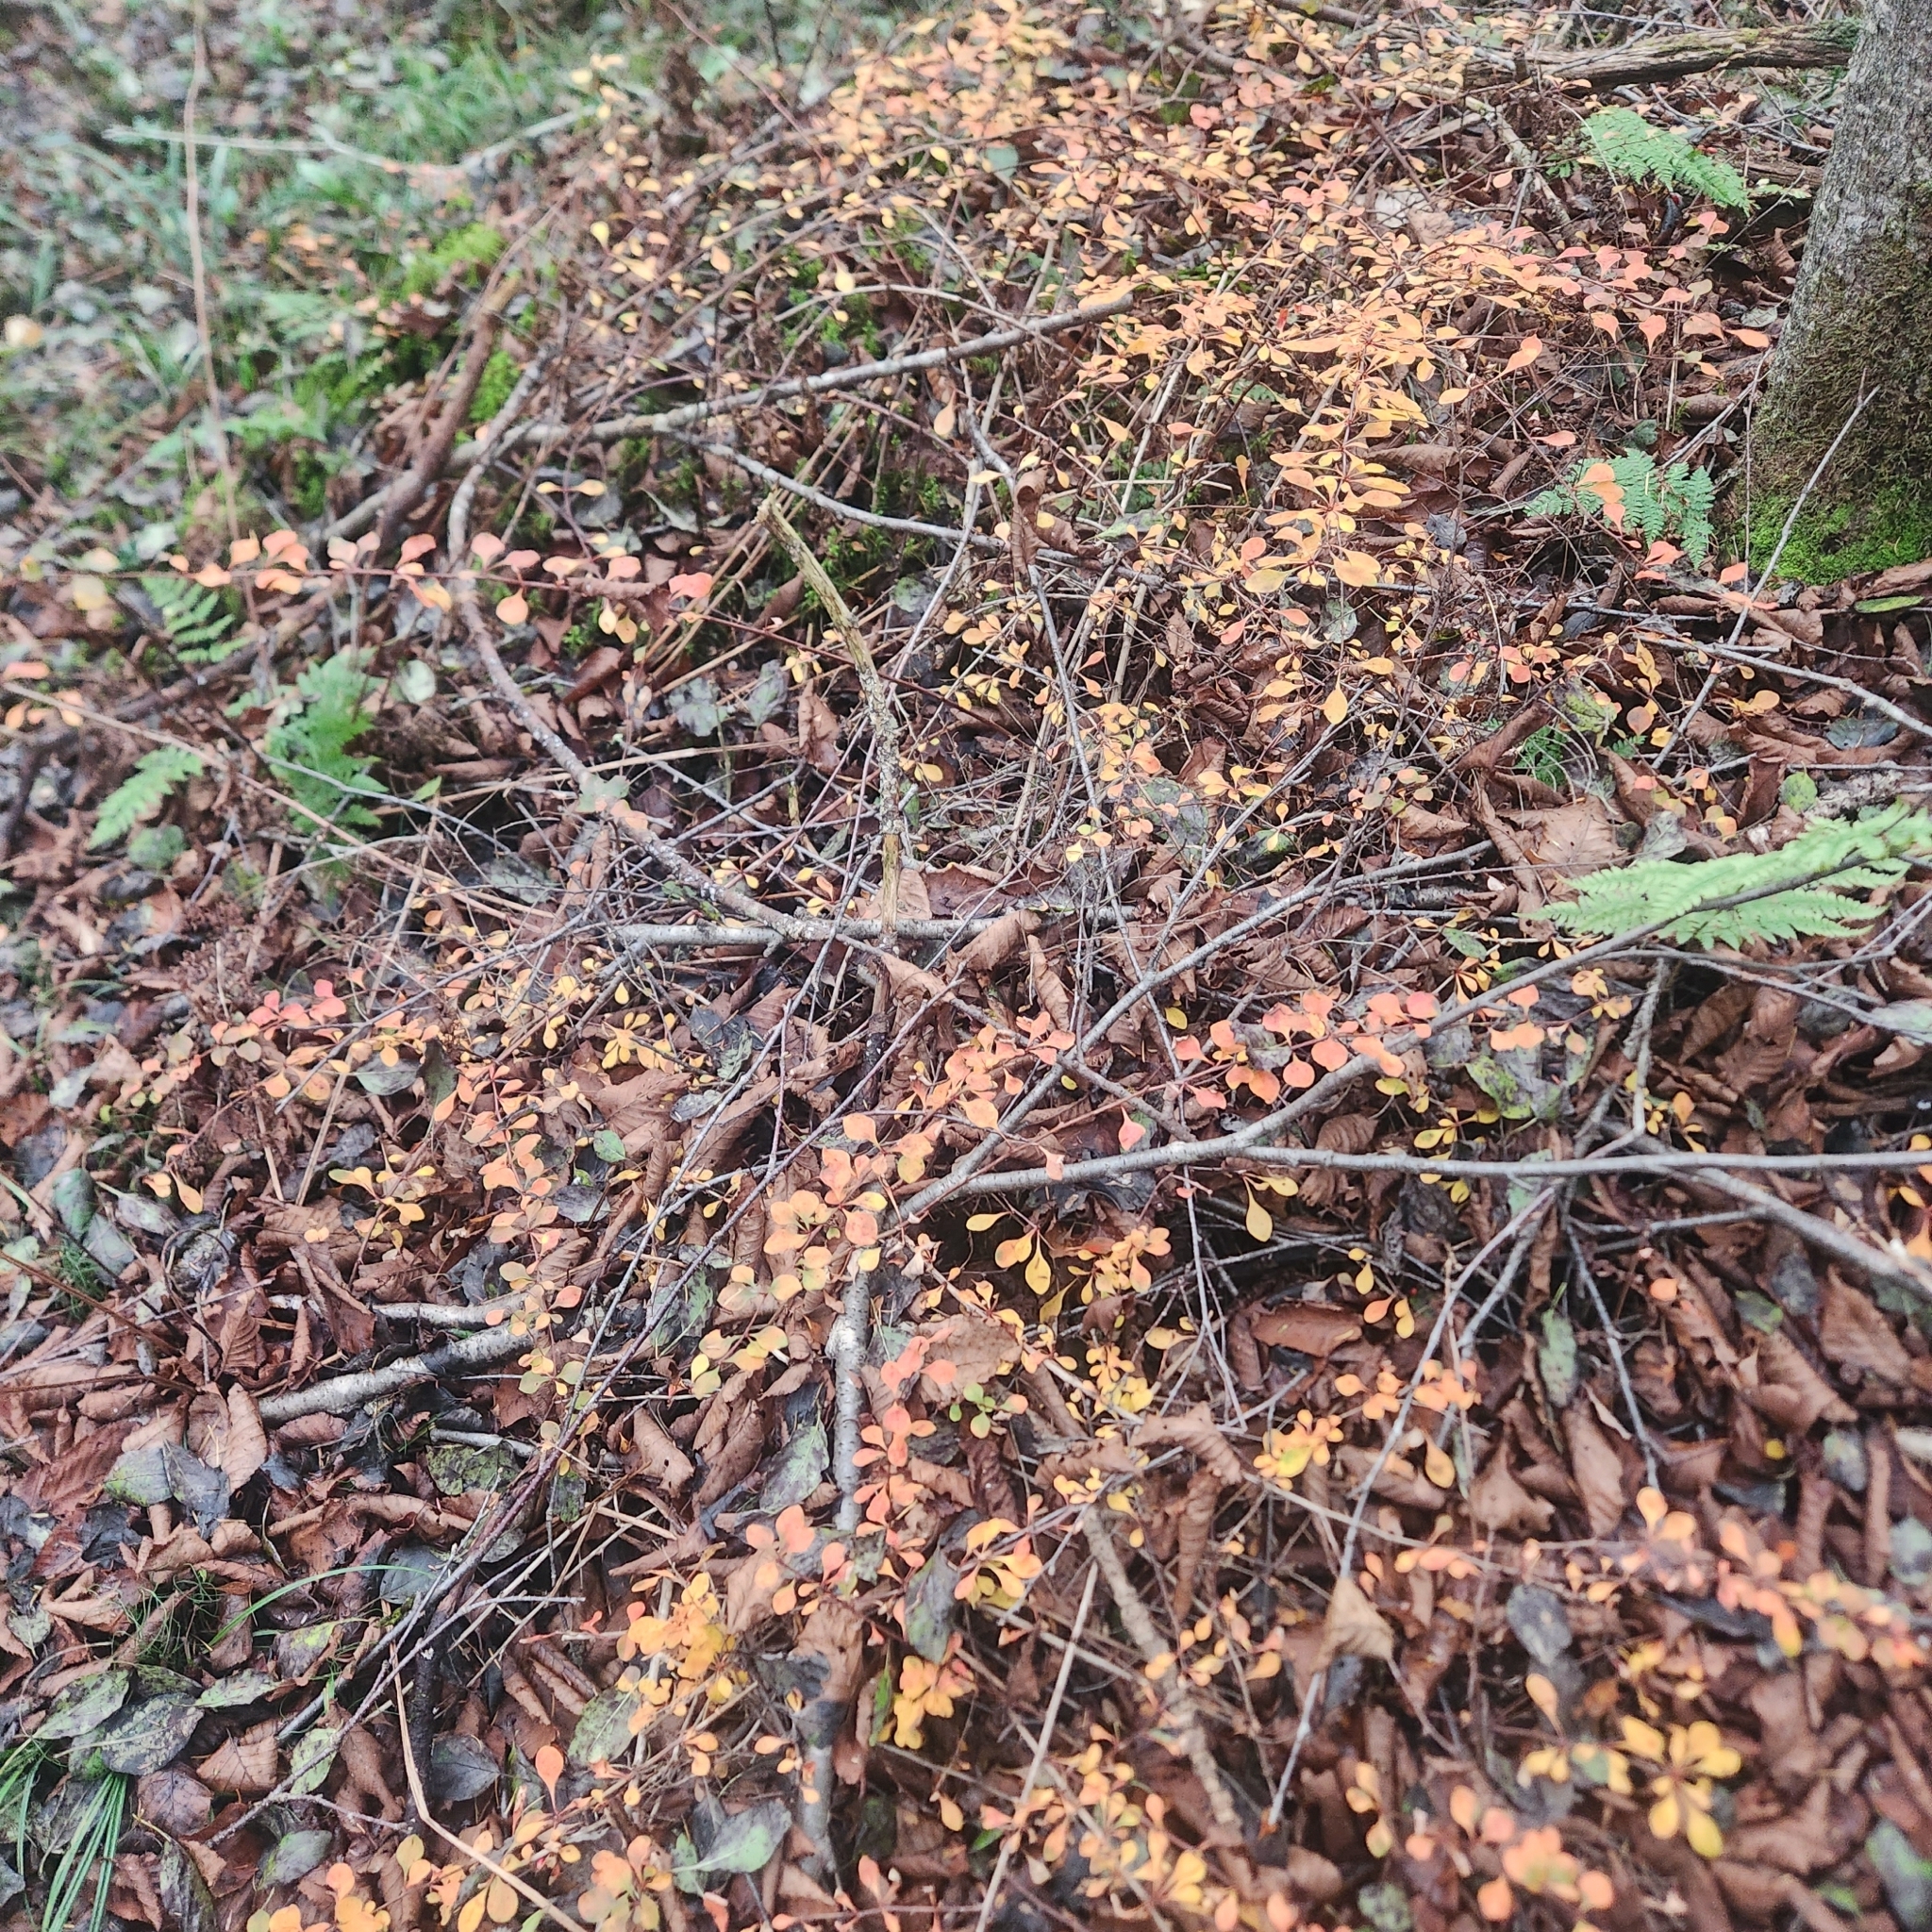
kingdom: Plantae
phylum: Tracheophyta
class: Magnoliopsida
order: Ranunculales
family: Berberidaceae
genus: Berberis
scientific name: Berberis thunbergii
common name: Japanese barberry
